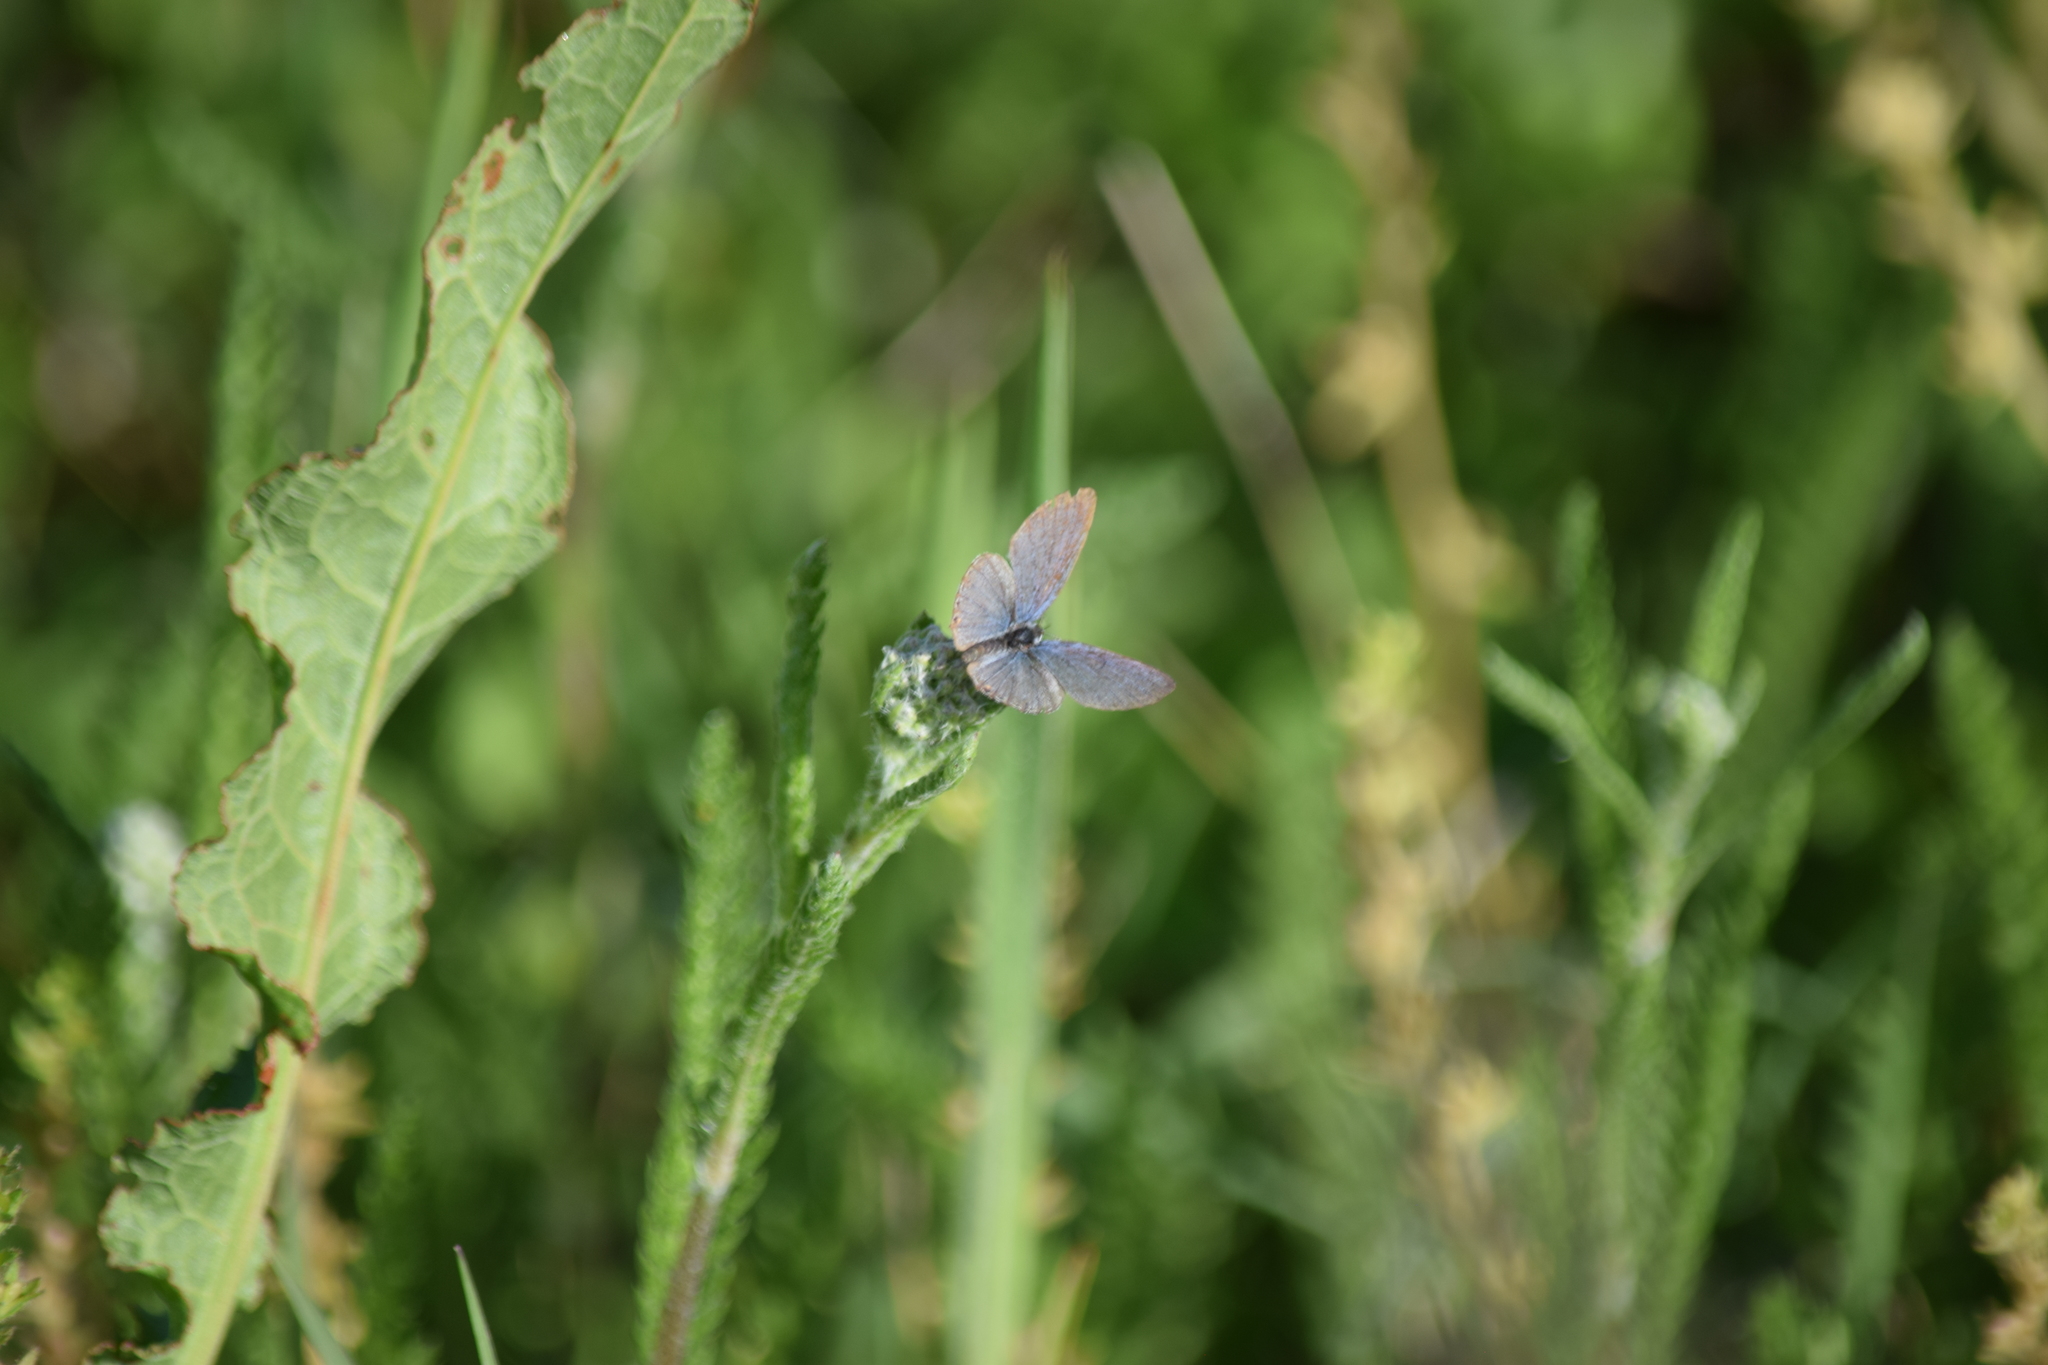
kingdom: Animalia
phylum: Arthropoda
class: Insecta
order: Lepidoptera
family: Lycaenidae
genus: Elkalyce
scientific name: Elkalyce comyntas
